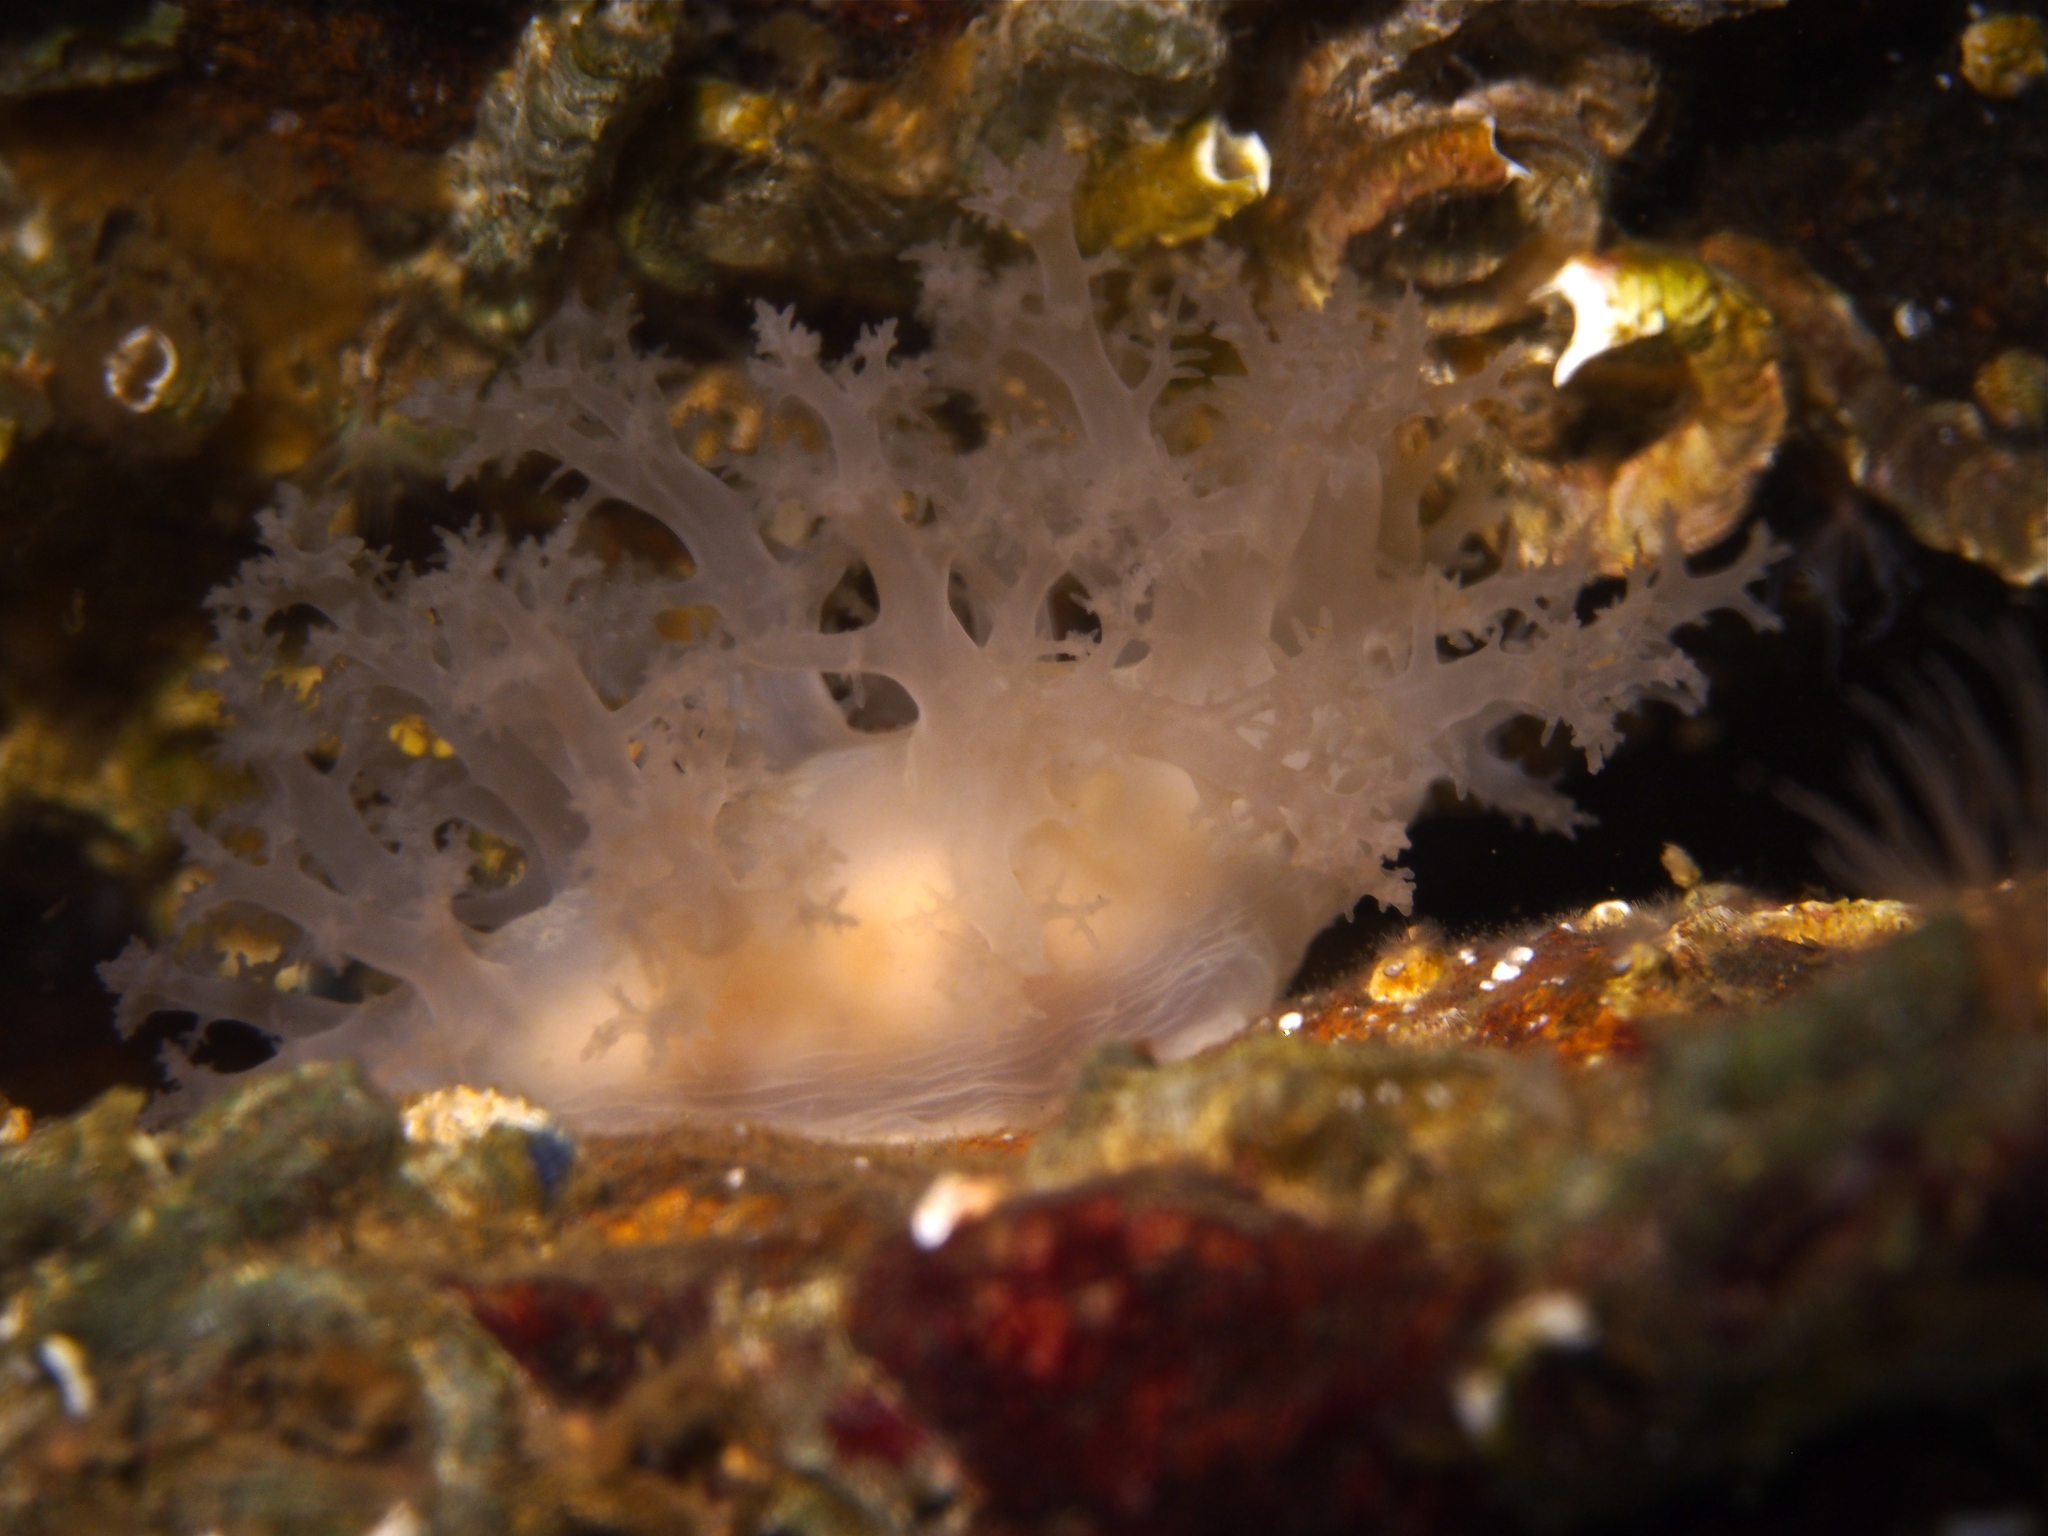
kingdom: Animalia
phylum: Mollusca
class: Gastropoda
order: Nudibranchia
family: Dendronotidae
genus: Dendronotus
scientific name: Dendronotus lacteus
